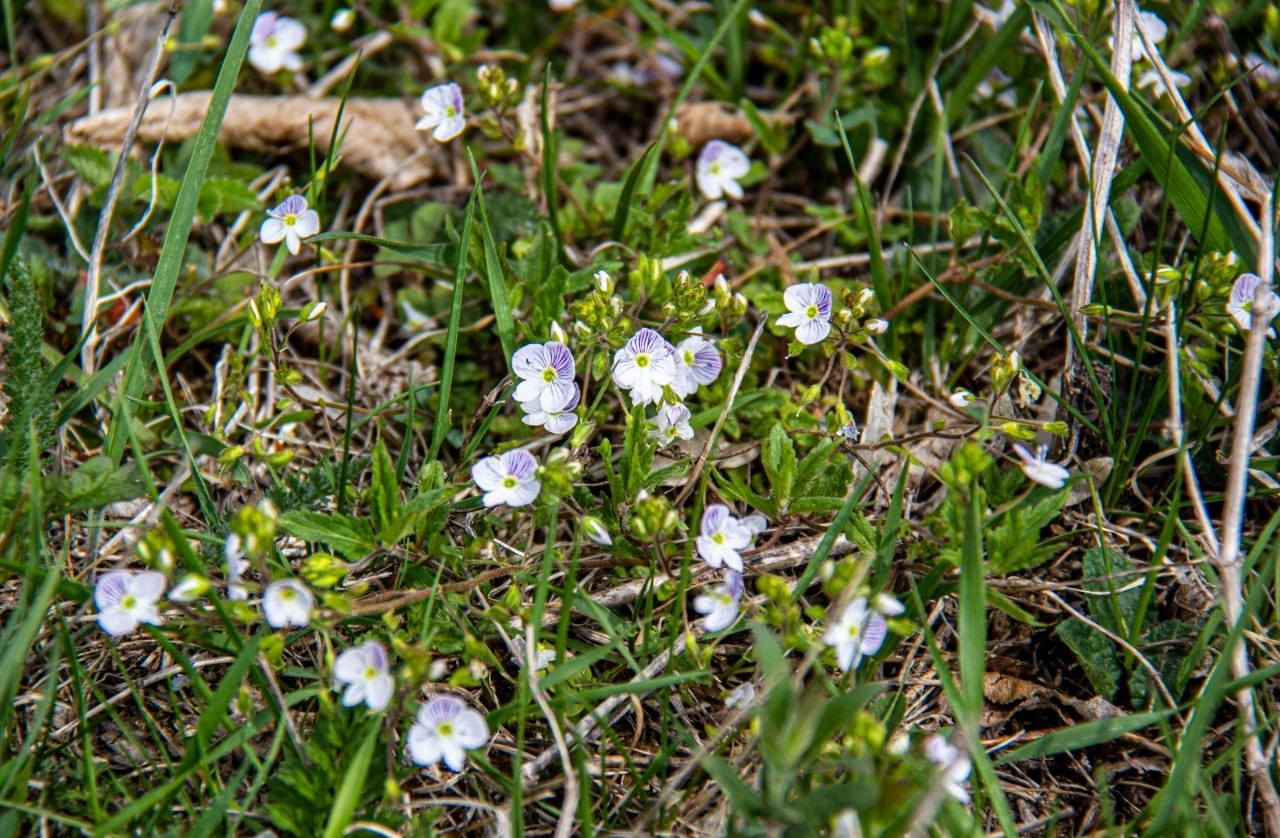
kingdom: Plantae
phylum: Tracheophyta
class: Magnoliopsida
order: Lamiales
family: Plantaginaceae
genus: Veronica
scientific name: Veronica peduncularis
